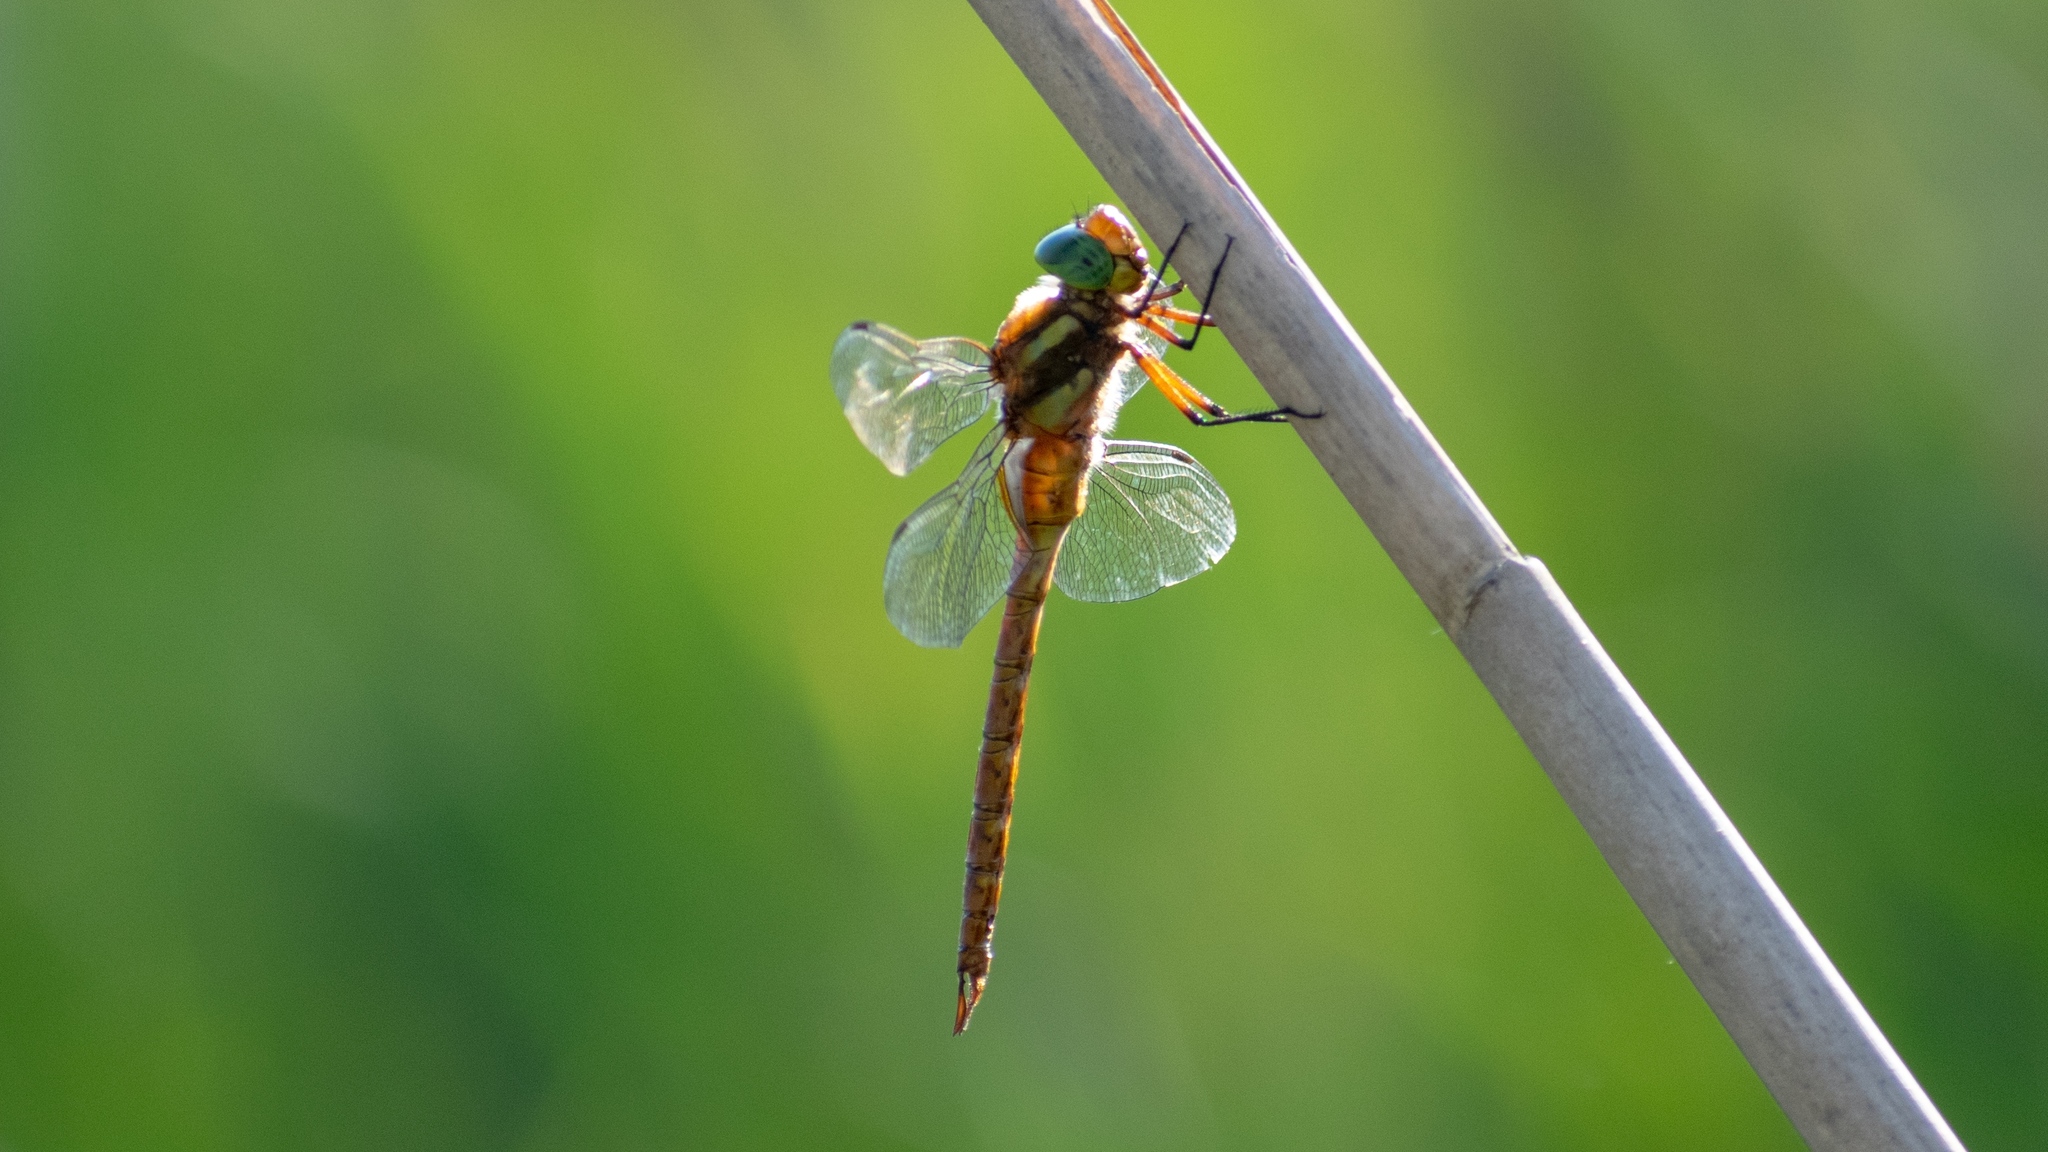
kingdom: Animalia
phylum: Arthropoda
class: Insecta
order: Odonata
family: Aeshnidae
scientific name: Aeshnidae
